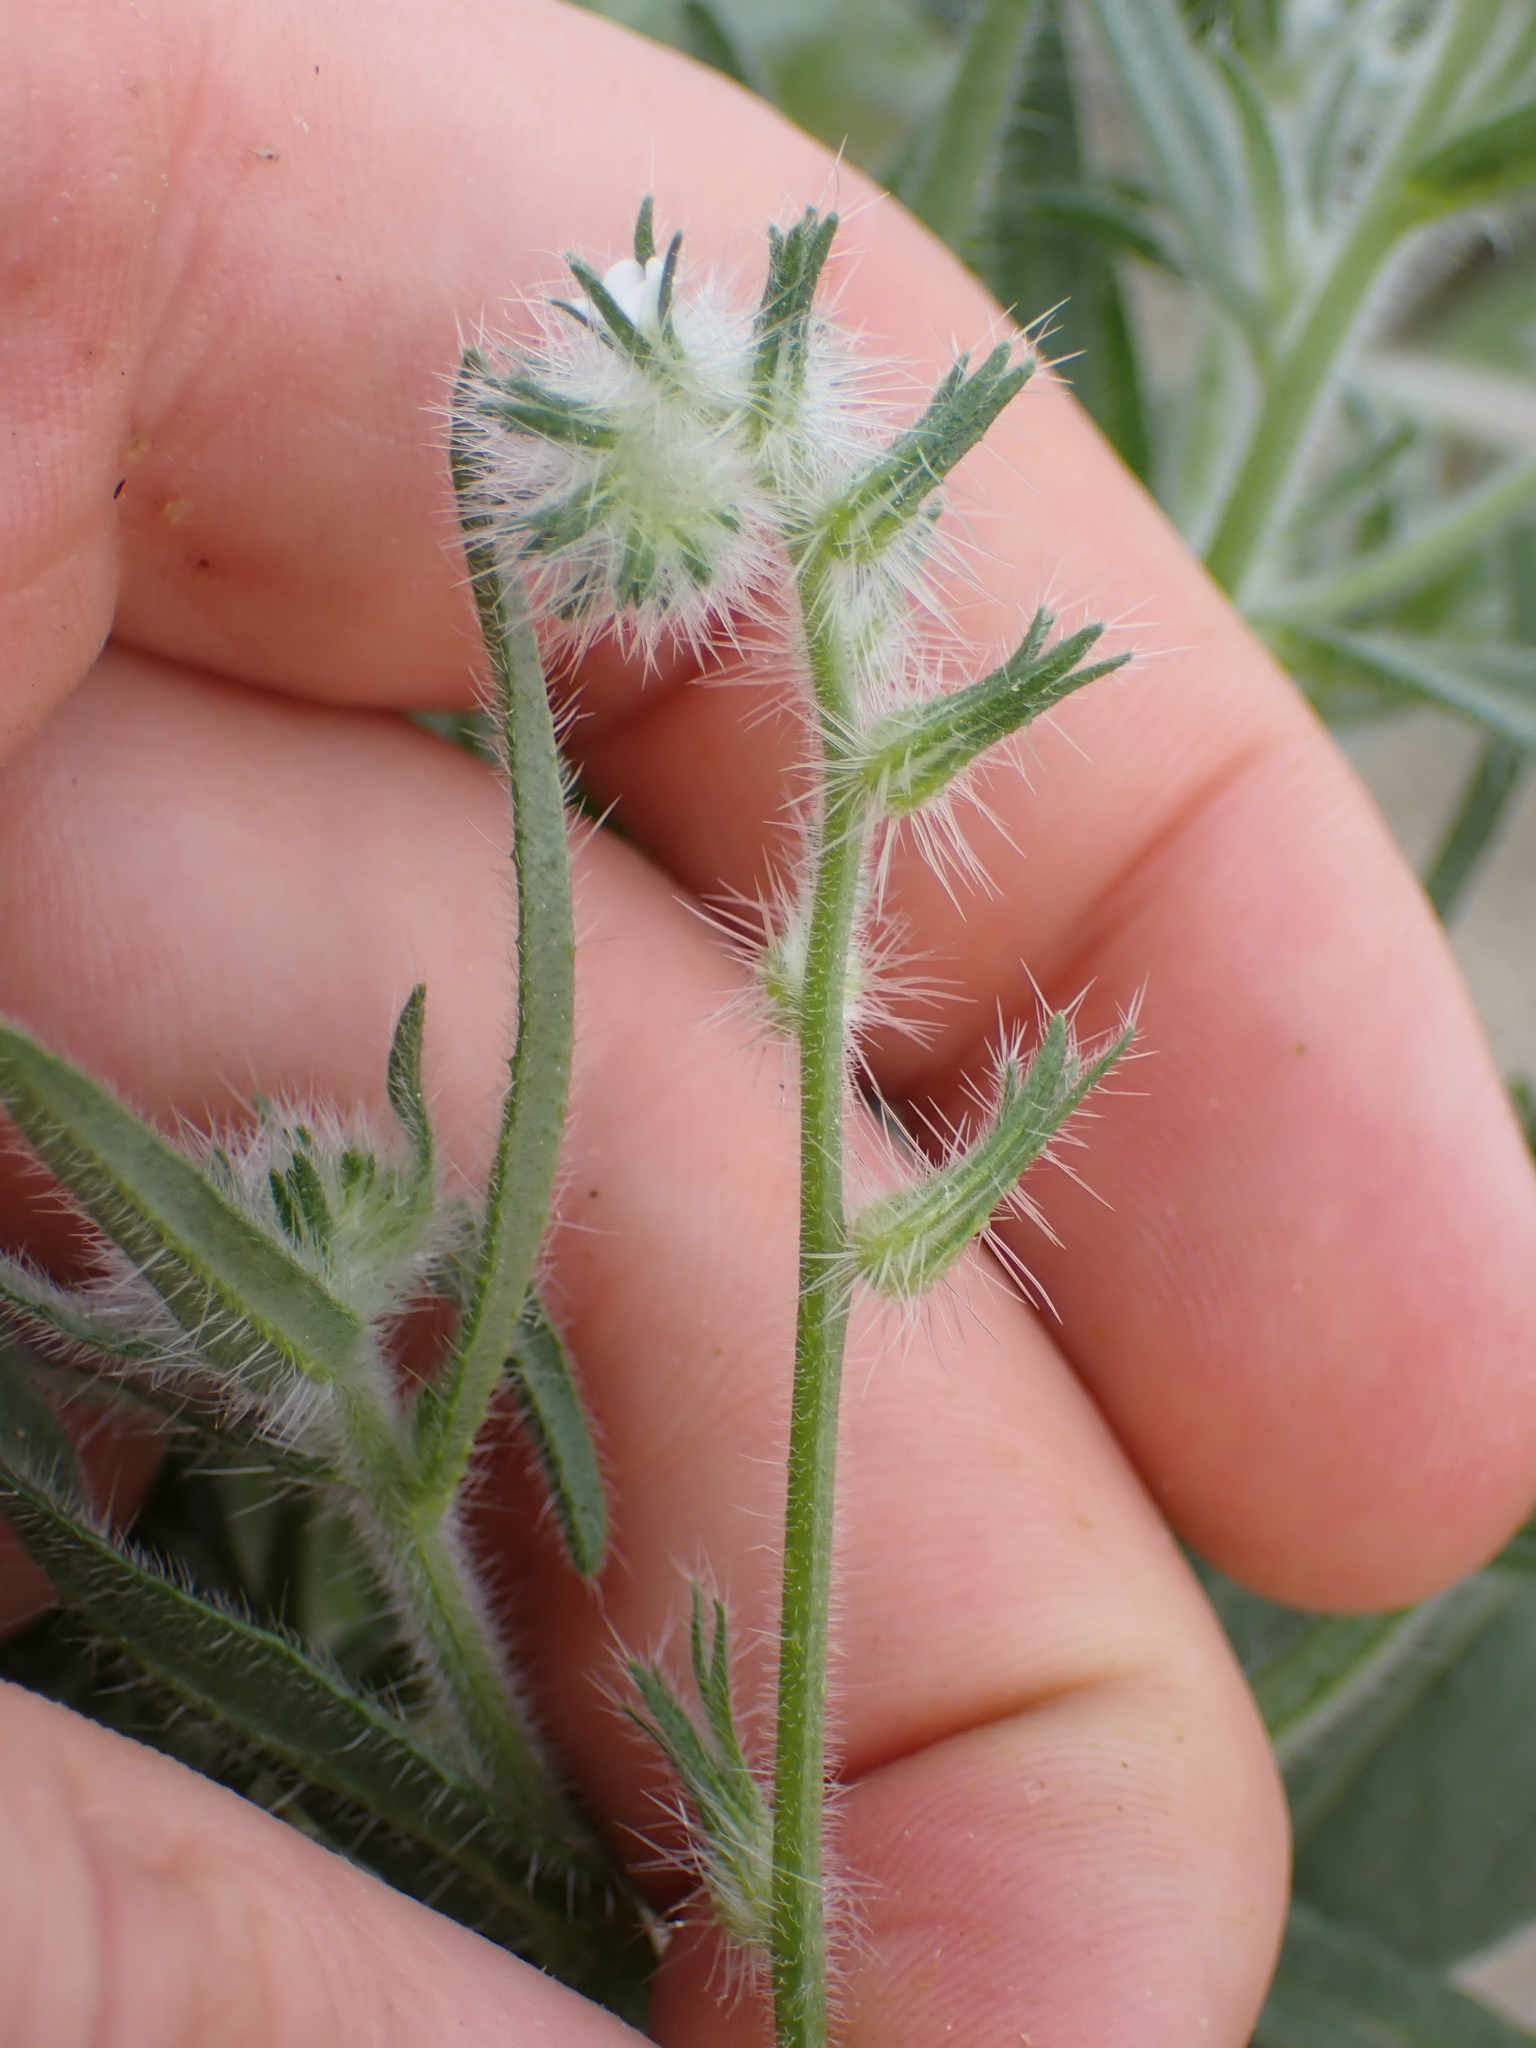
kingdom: Plantae
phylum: Tracheophyta
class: Magnoliopsida
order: Boraginales
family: Boraginaceae
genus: Cryptantha
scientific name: Cryptantha barbigera
